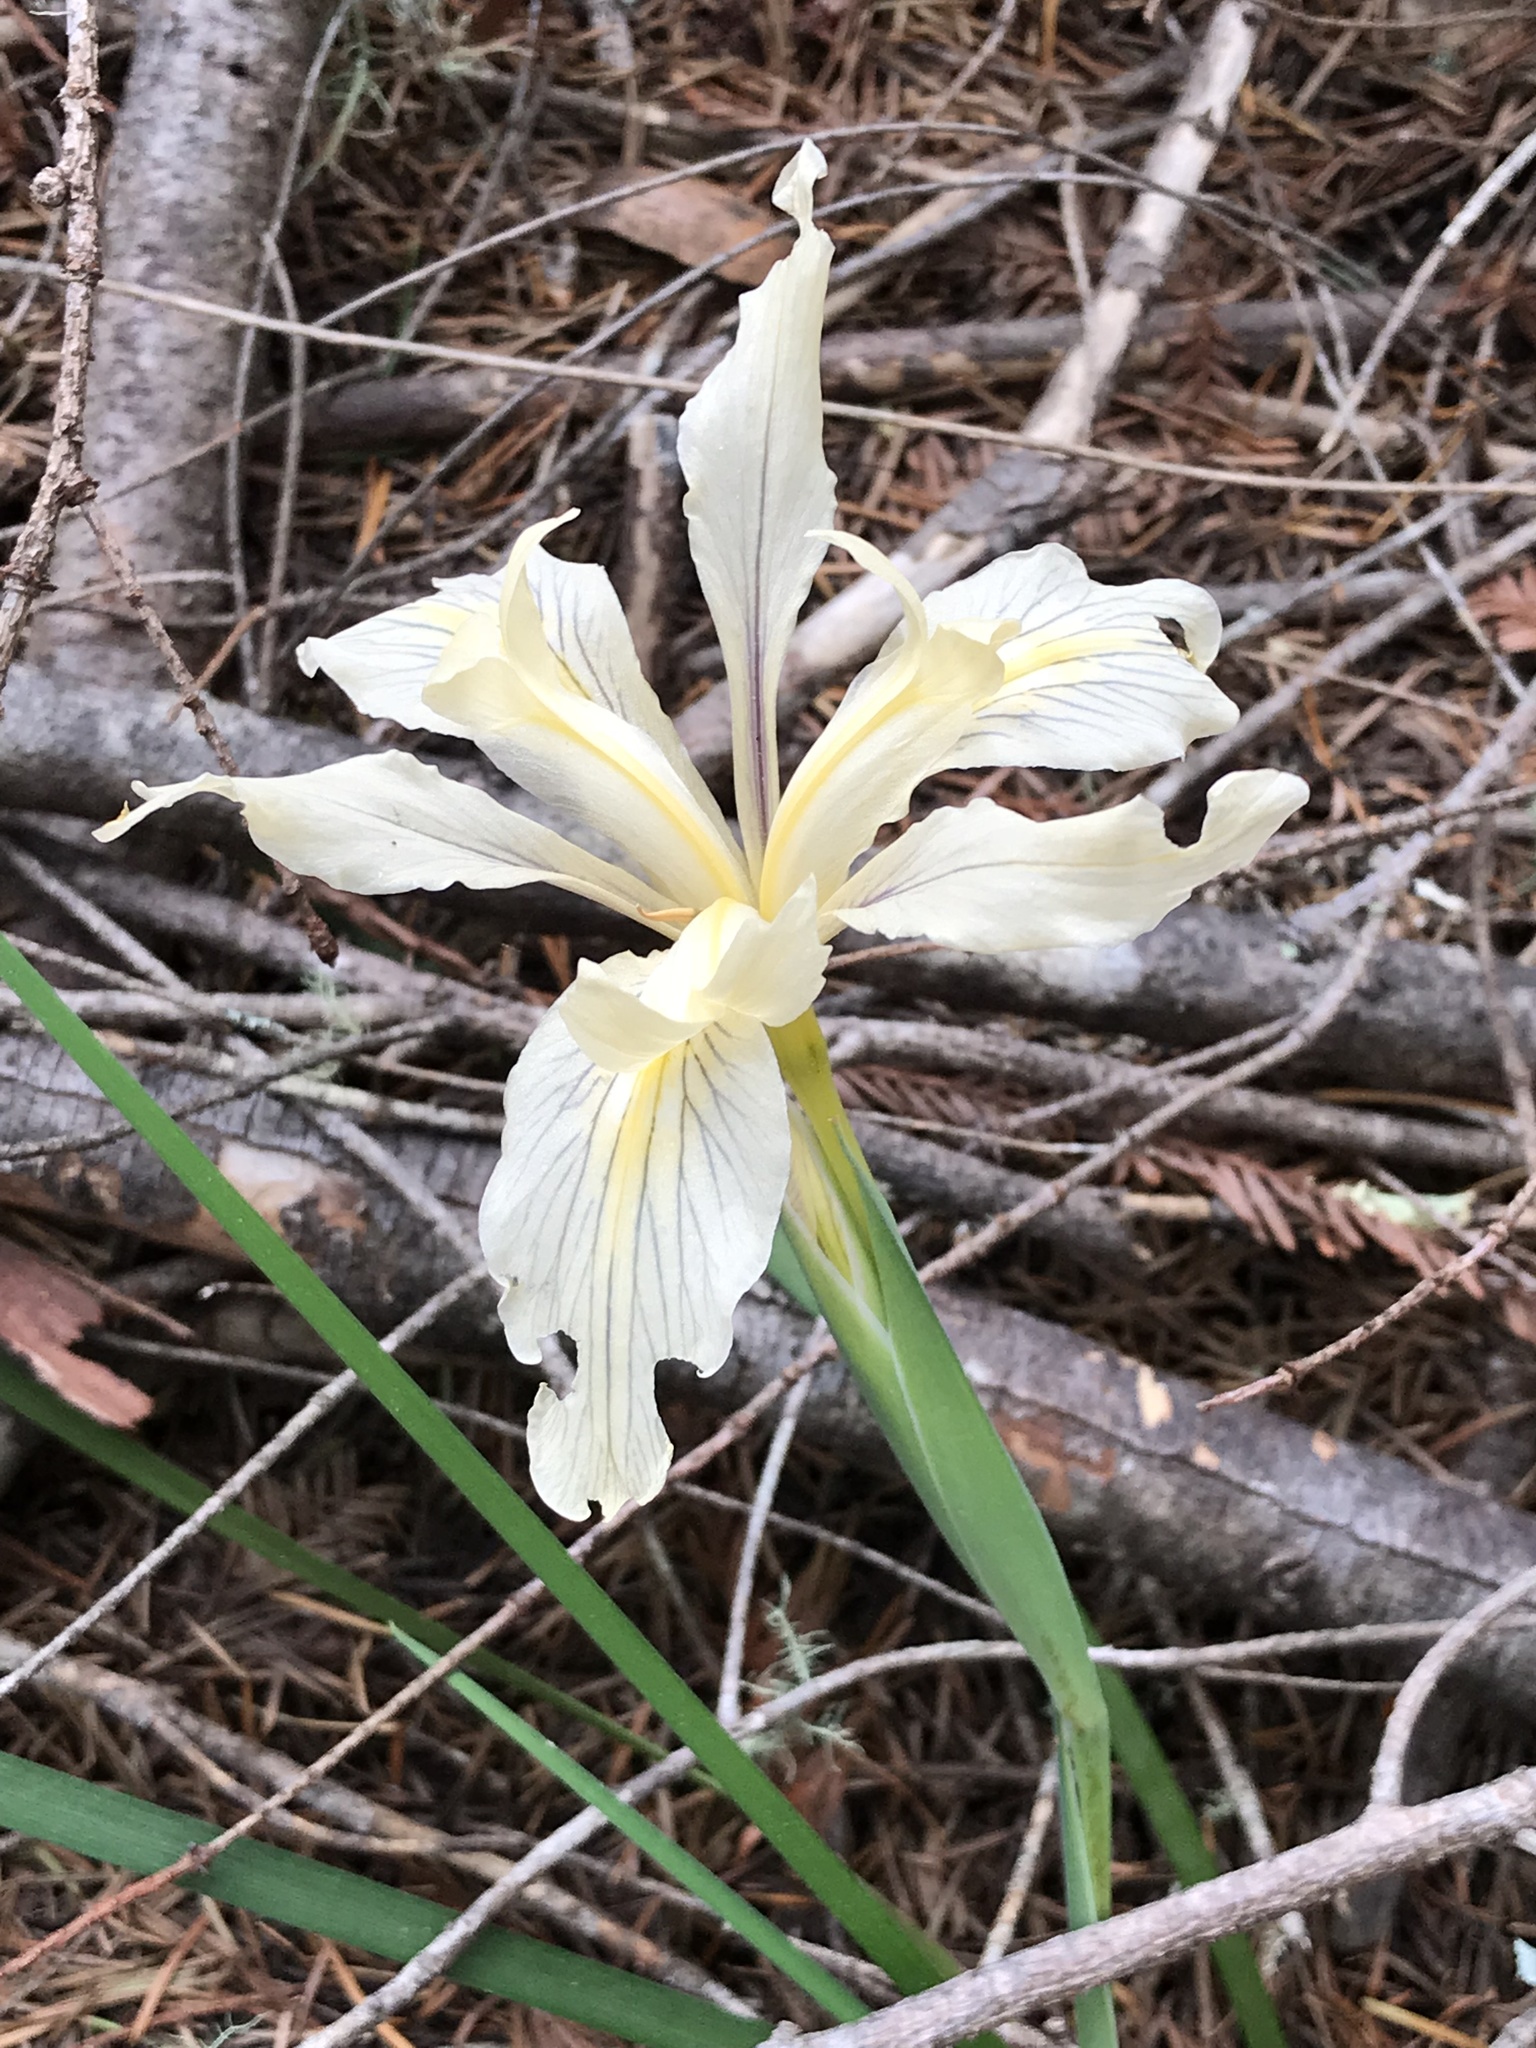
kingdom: Plantae
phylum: Tracheophyta
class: Liliopsida
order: Asparagales
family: Iridaceae
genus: Iris
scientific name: Iris douglasiana
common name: Marin iris
